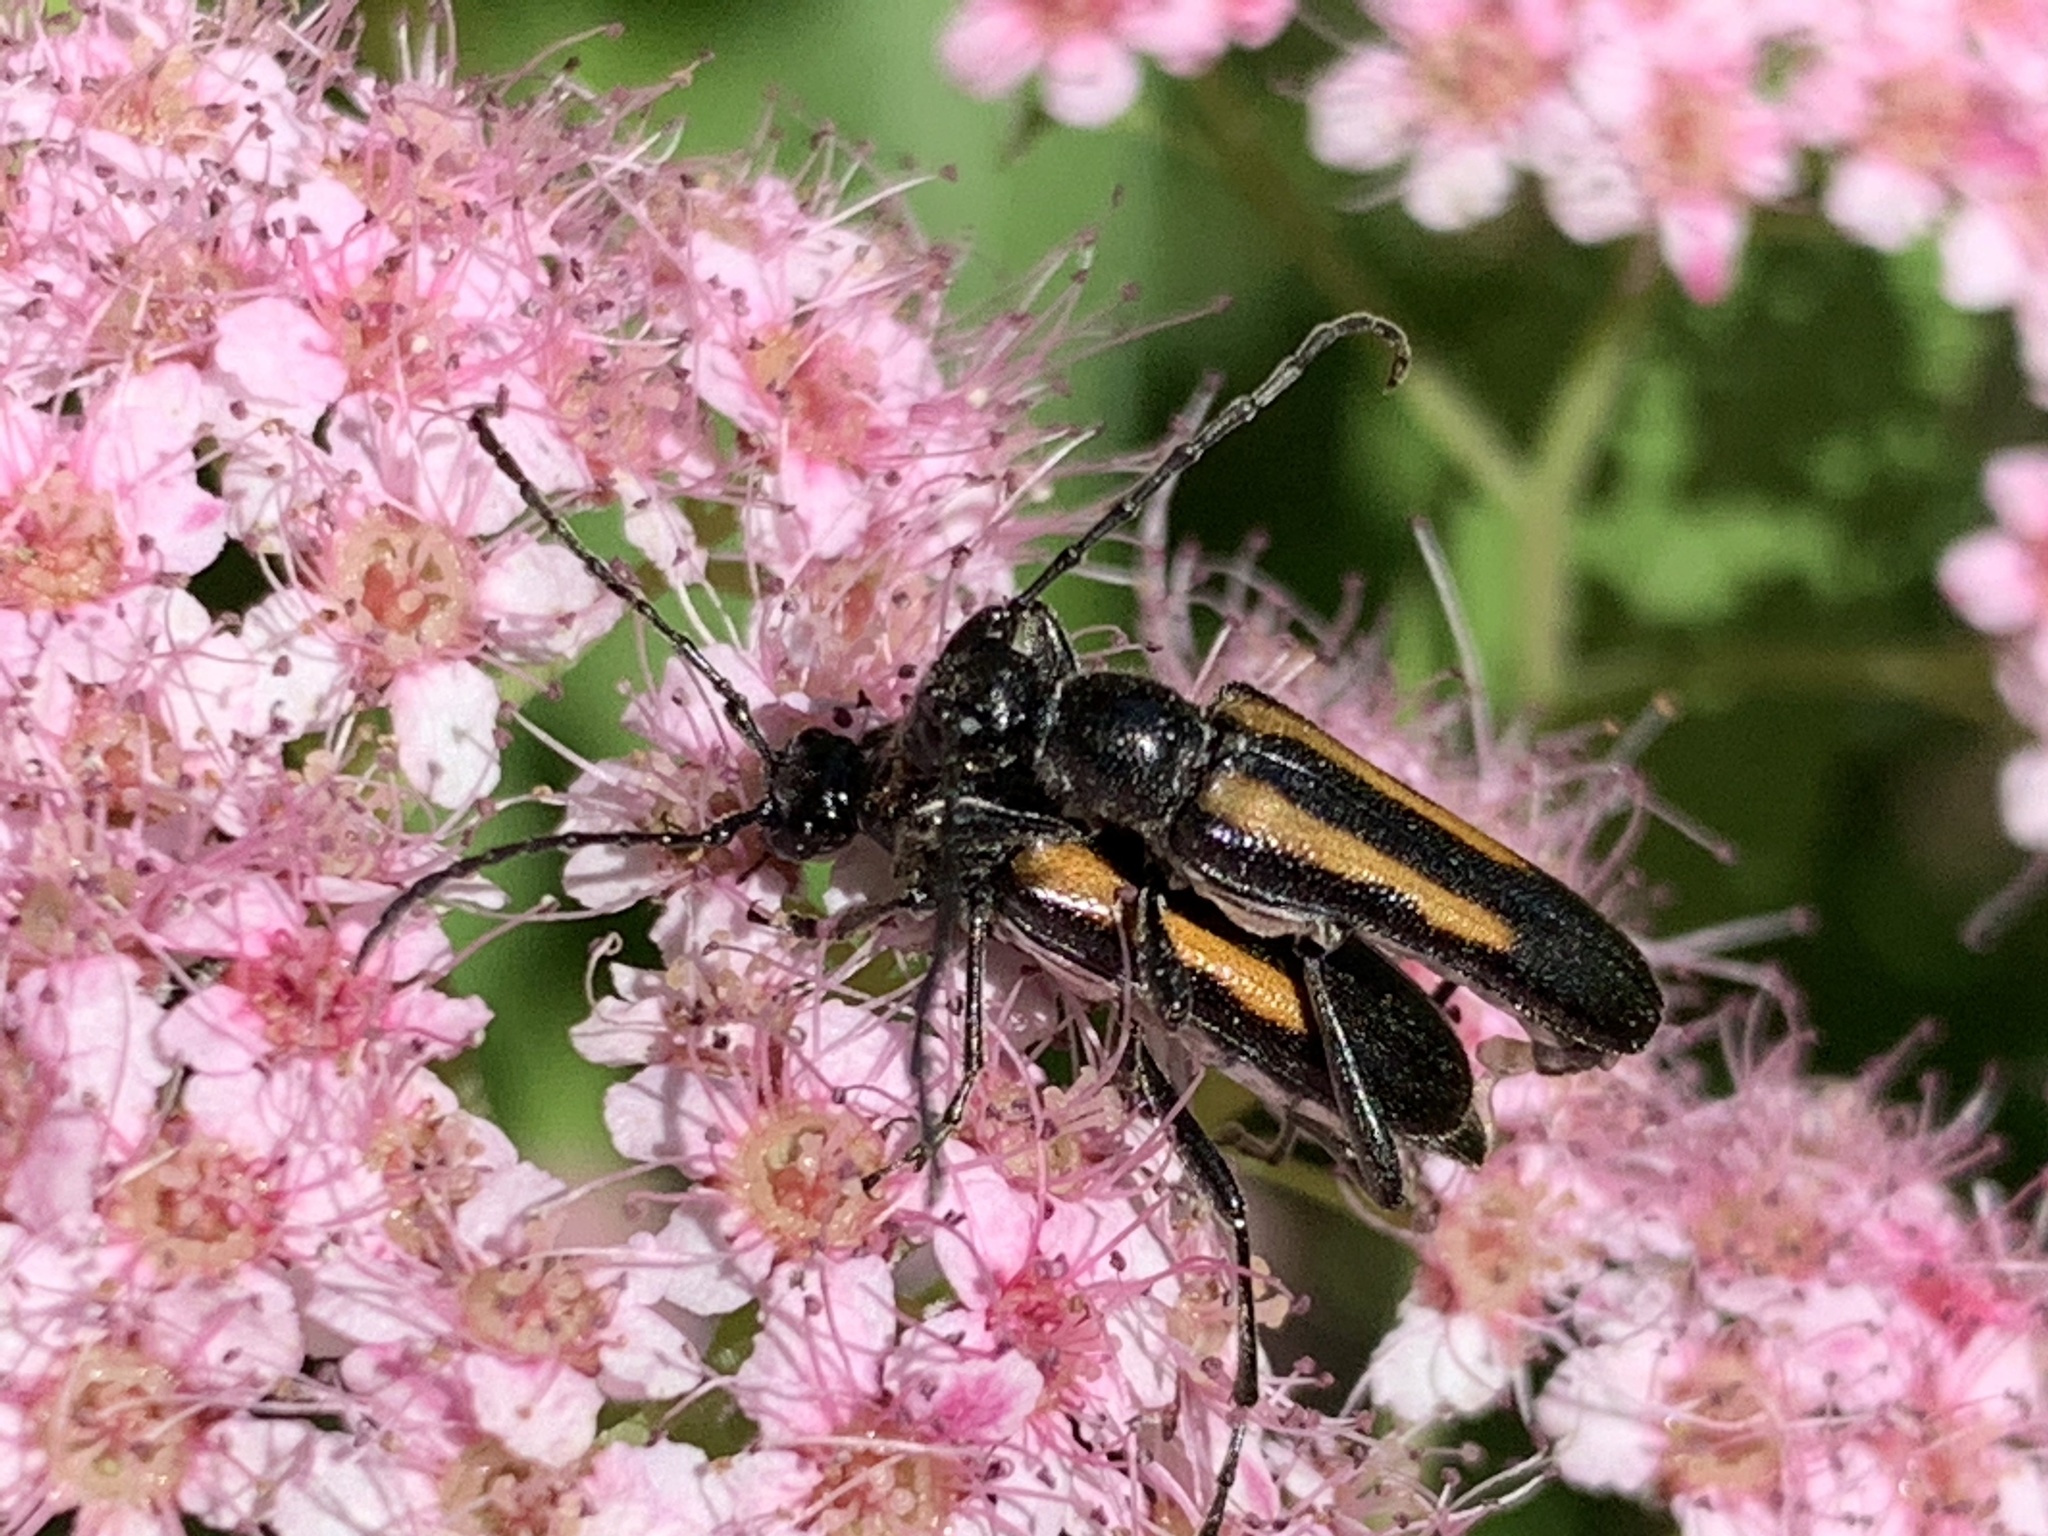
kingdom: Animalia
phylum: Arthropoda
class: Insecta
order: Coleoptera
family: Cerambycidae
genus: Strangalepta
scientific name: Strangalepta abbreviata
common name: Strangalepta flower longhorn beetle
